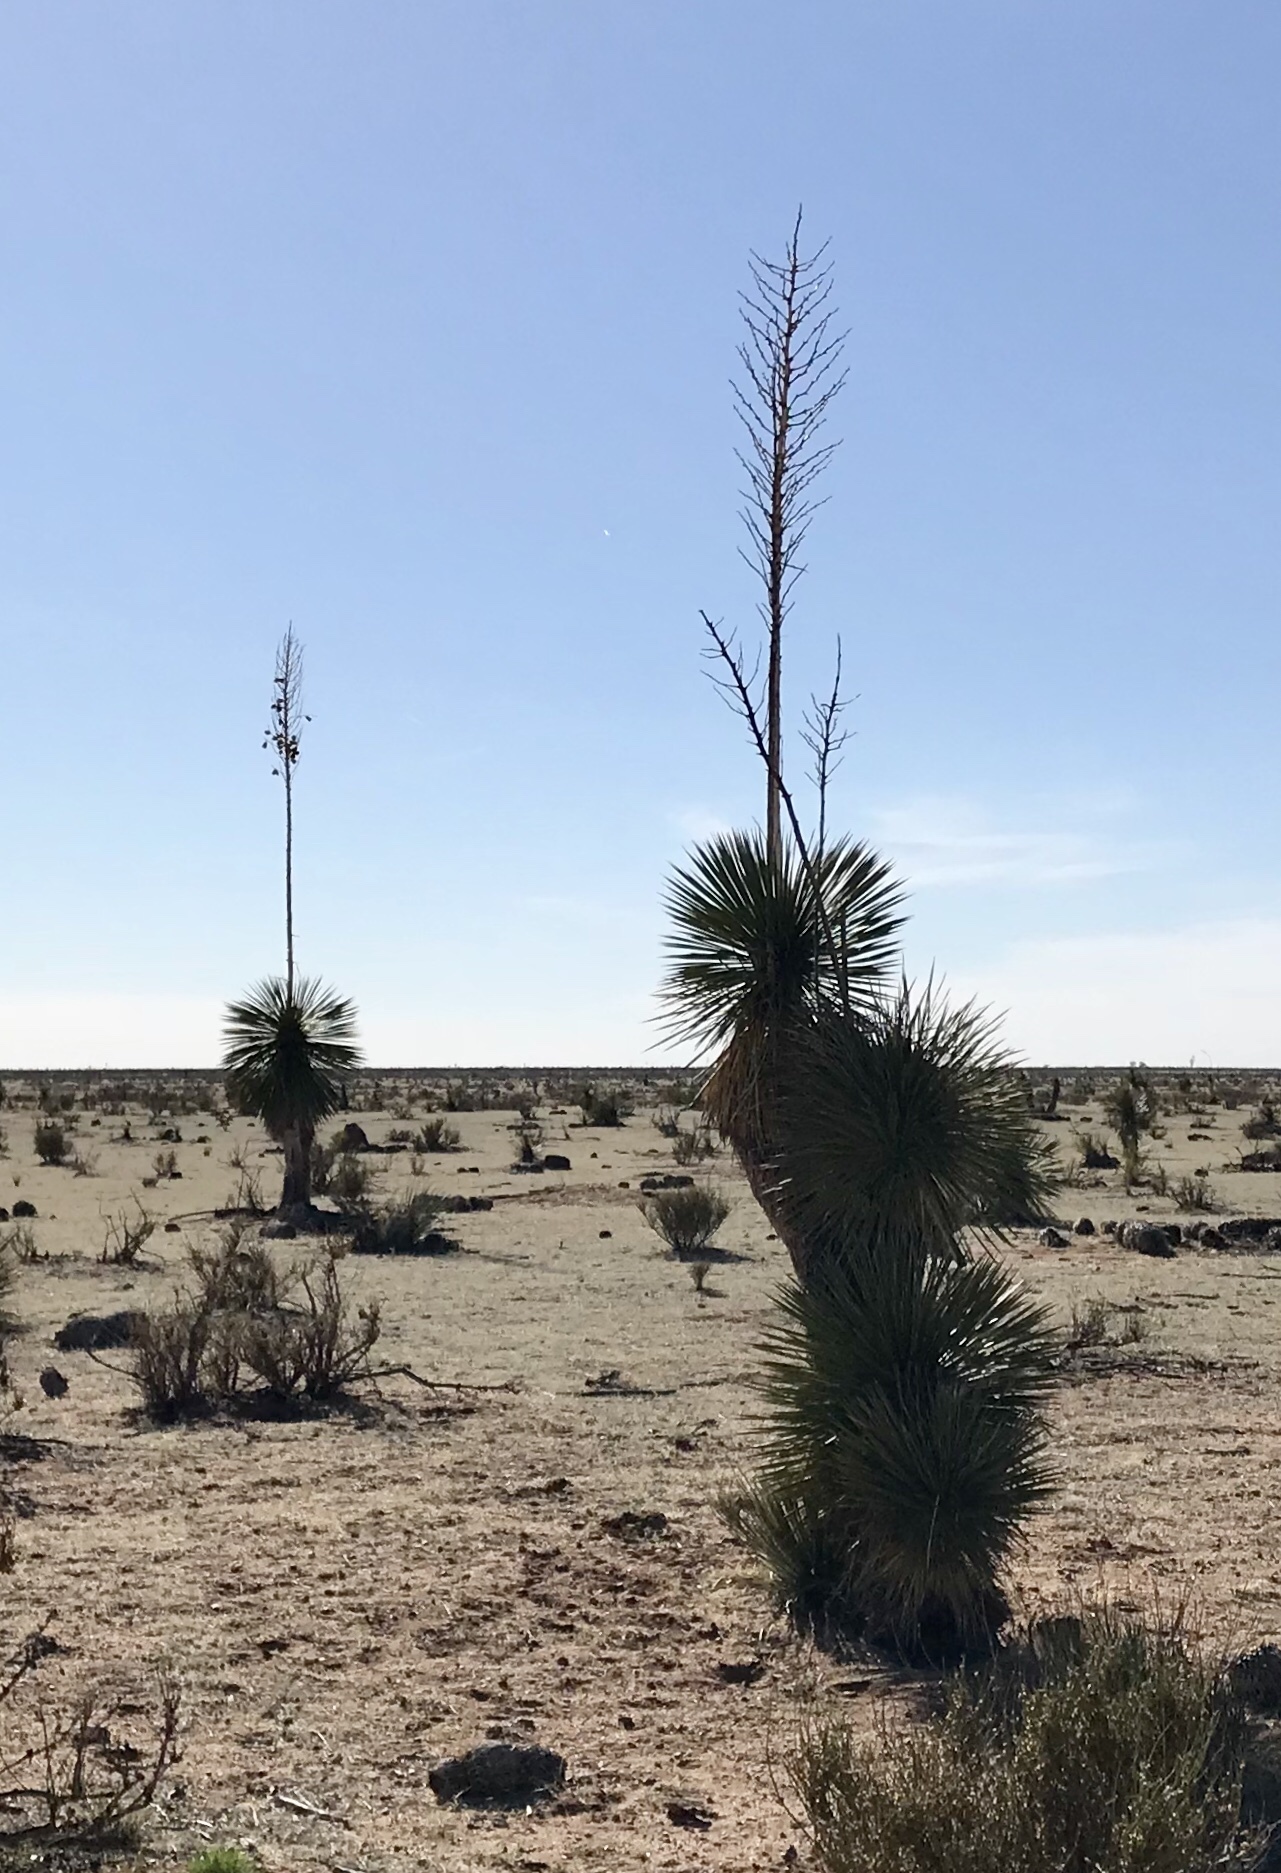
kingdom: Plantae
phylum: Tracheophyta
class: Liliopsida
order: Asparagales
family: Asparagaceae
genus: Yucca
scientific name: Yucca elata
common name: Palmella
